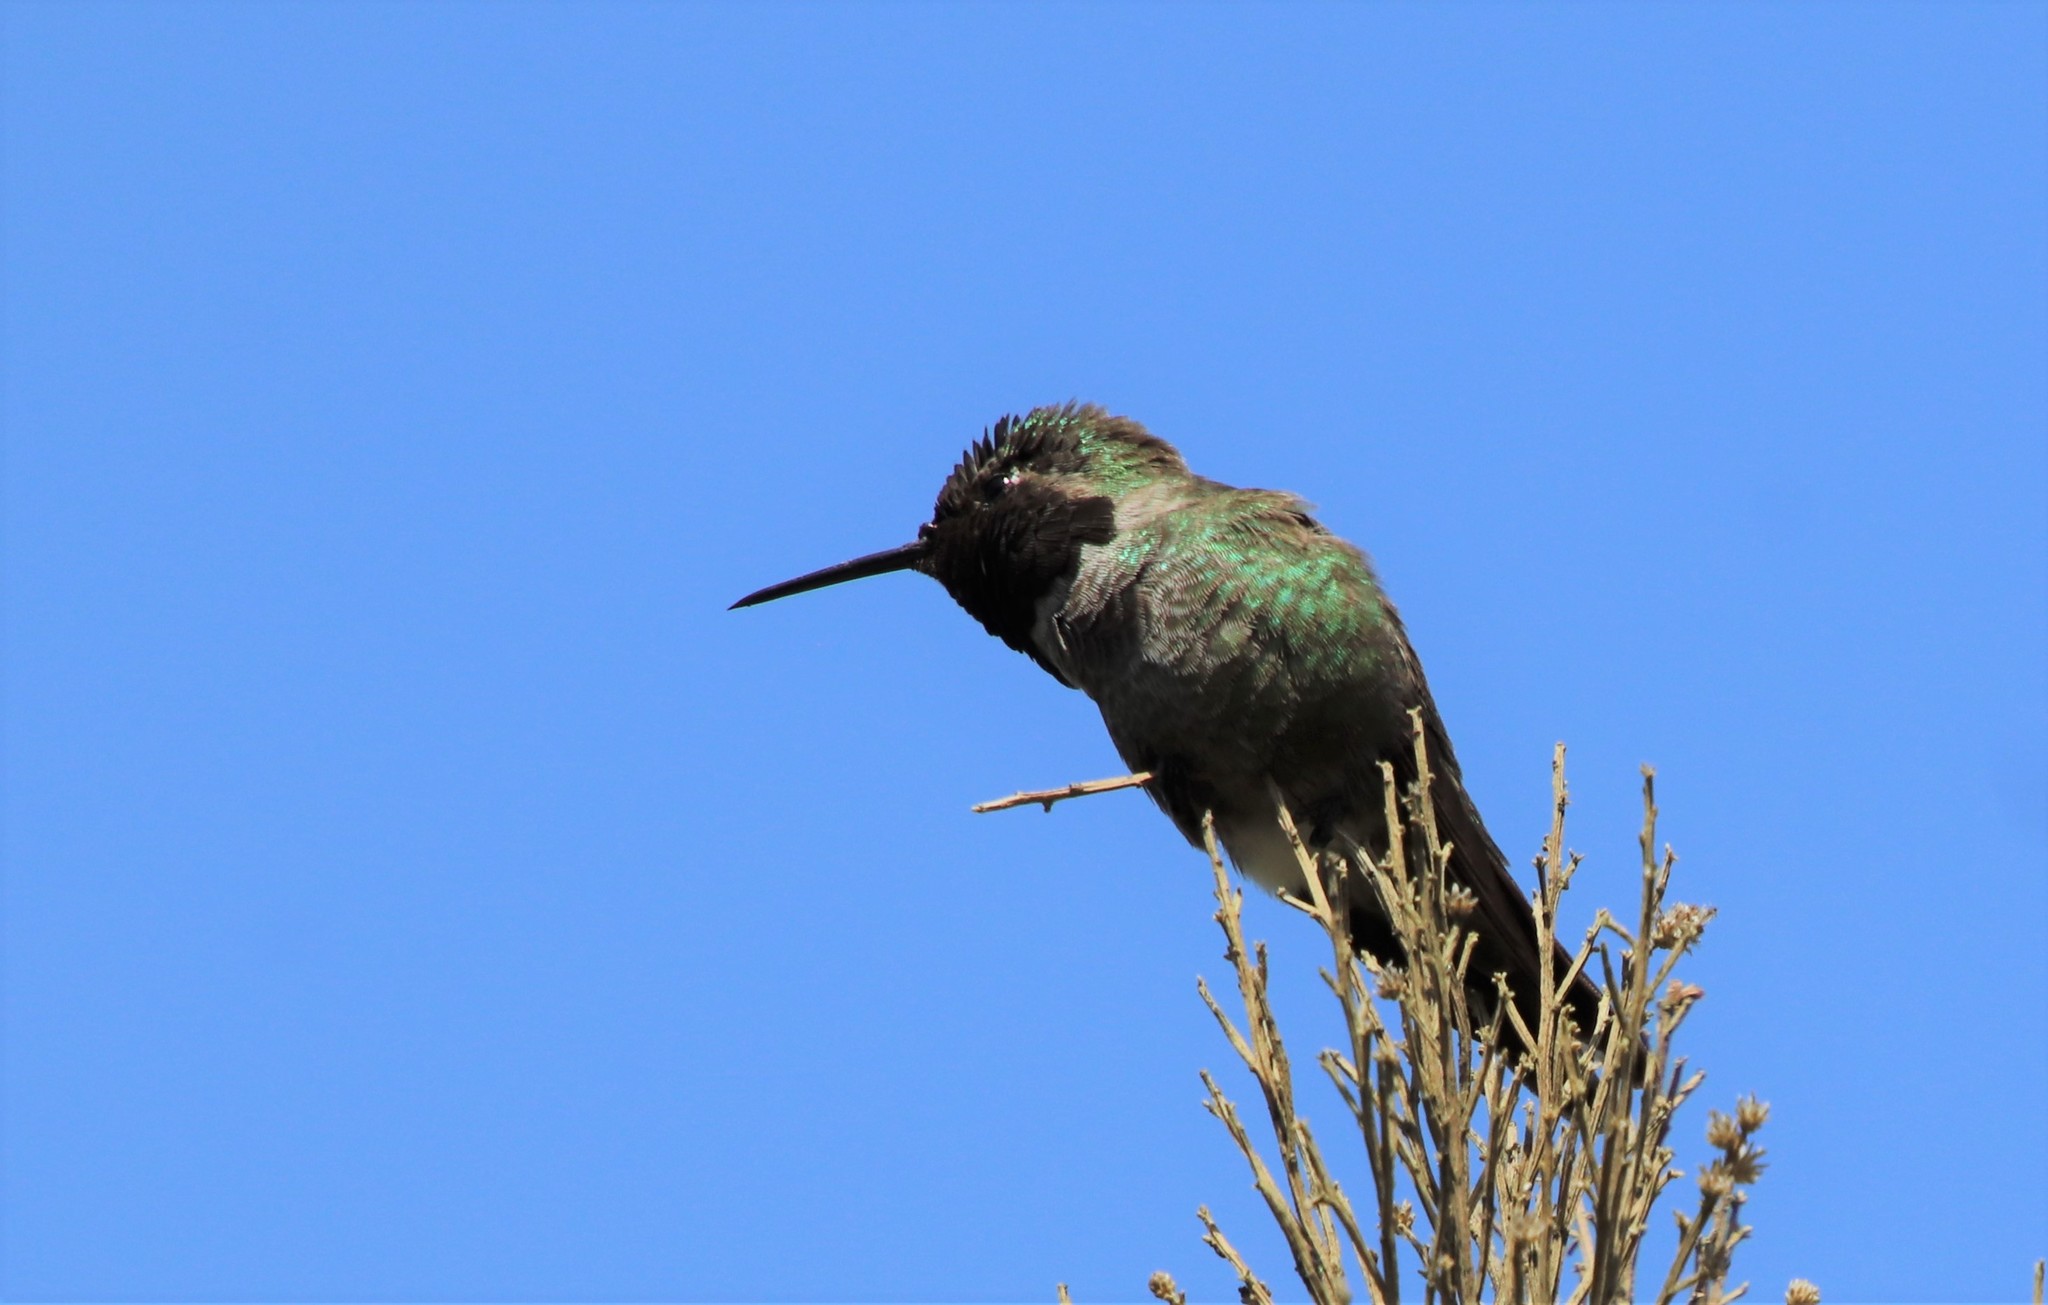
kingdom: Animalia
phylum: Chordata
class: Aves
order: Apodiformes
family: Trochilidae
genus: Calypte
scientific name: Calypte anna
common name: Anna's hummingbird
